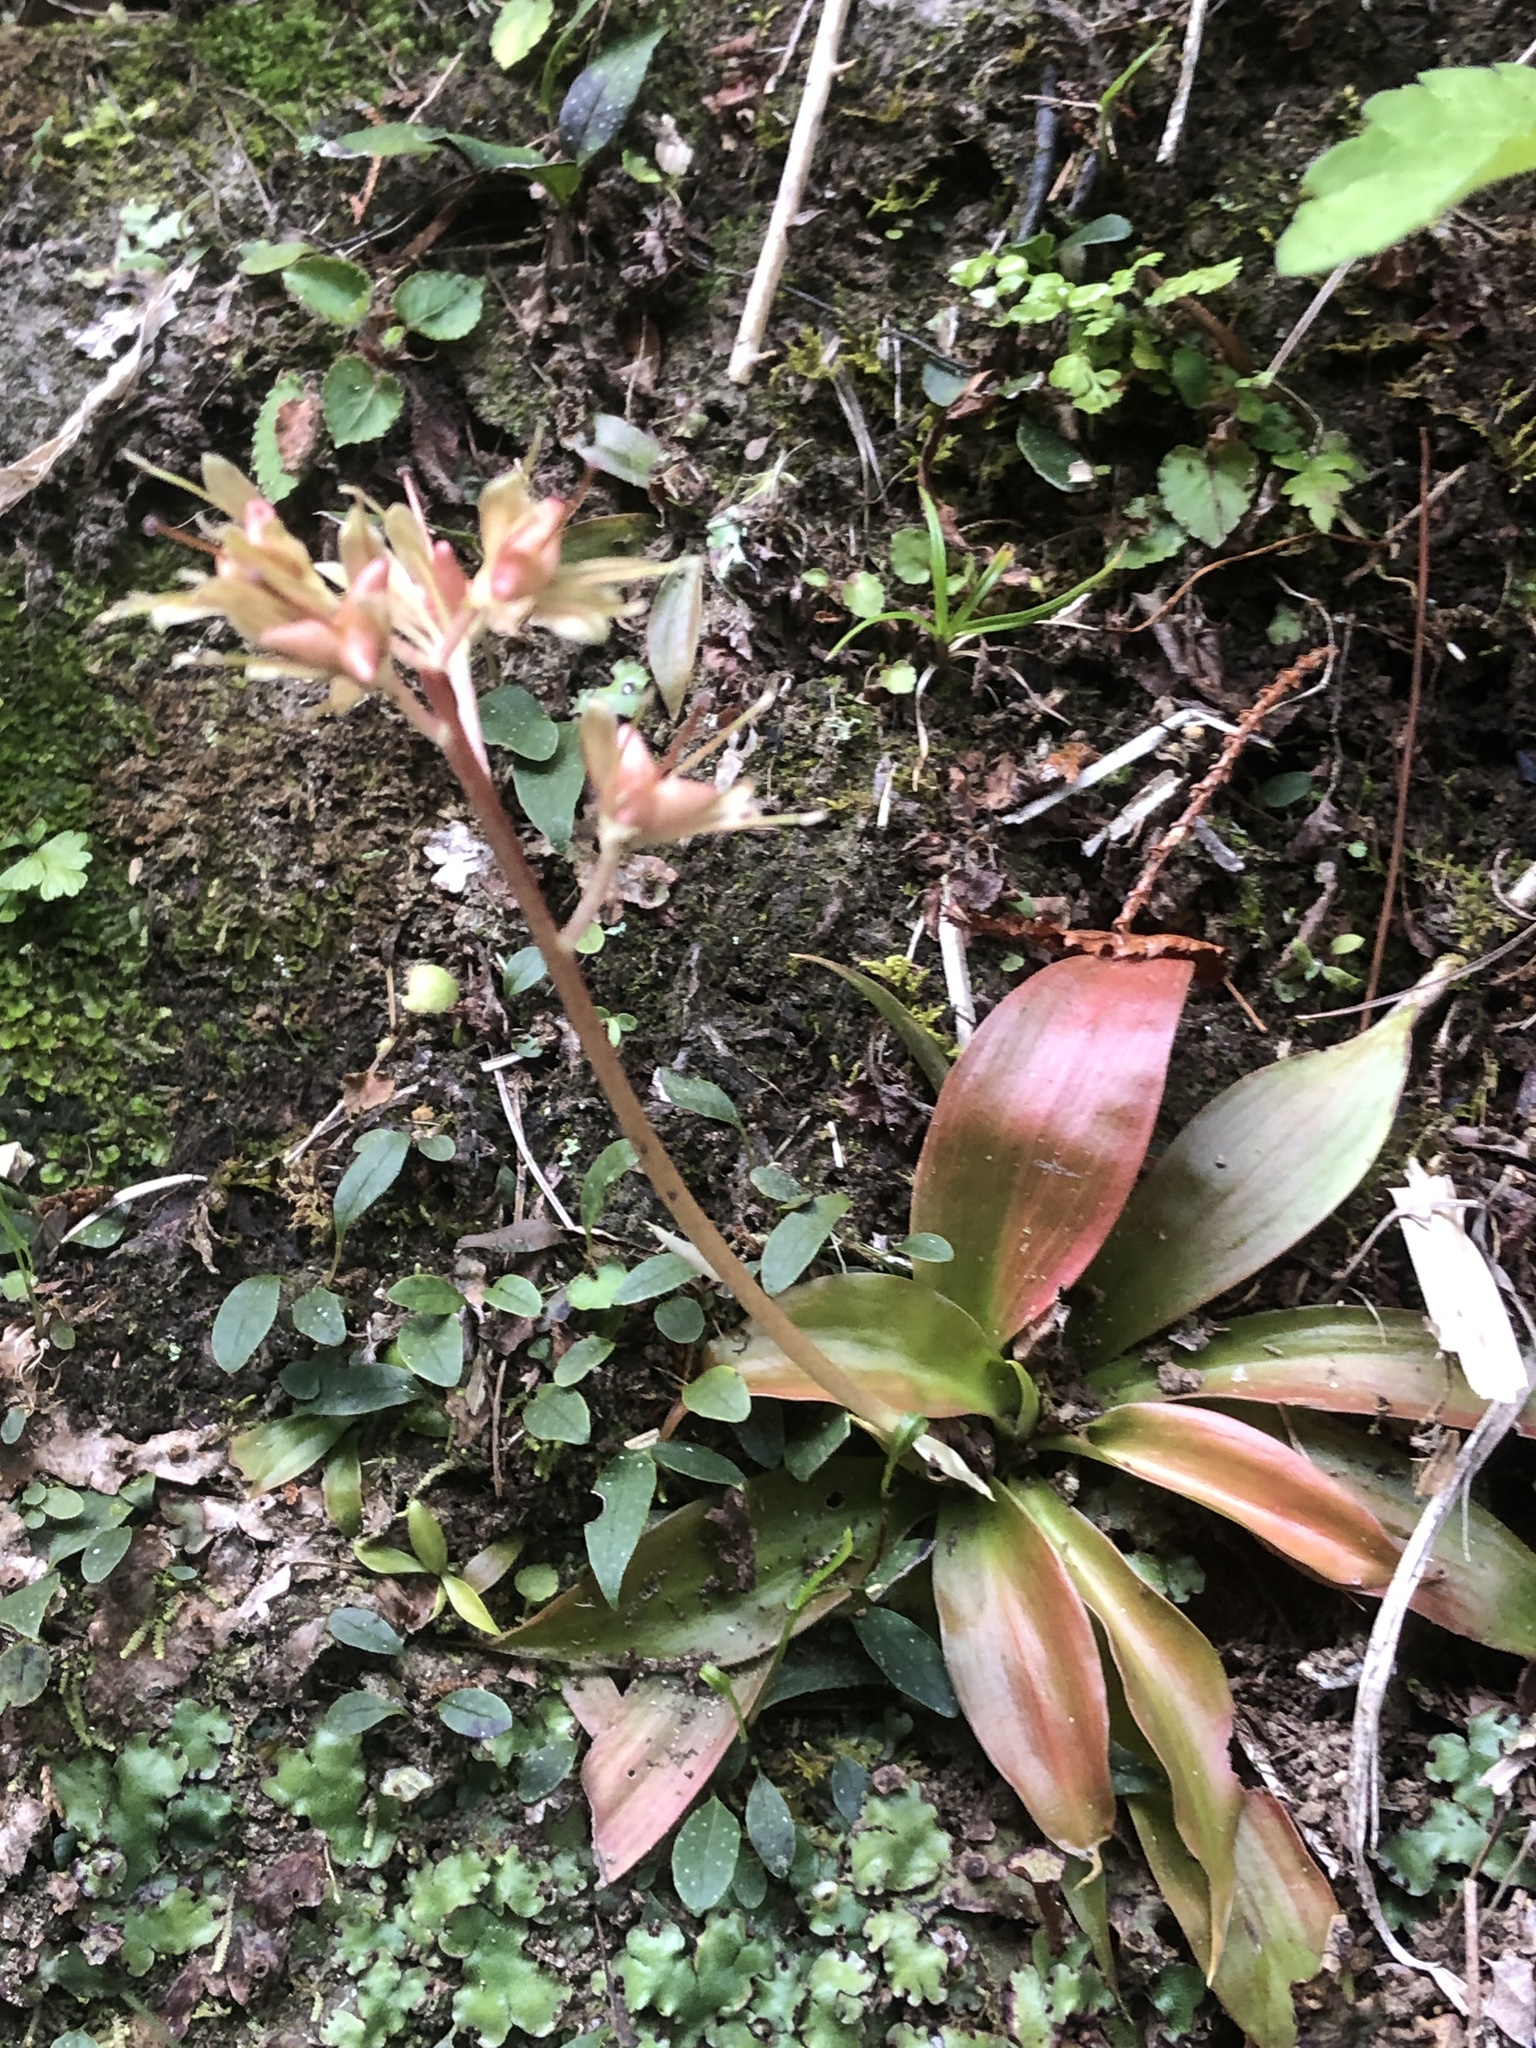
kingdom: Plantae
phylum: Tracheophyta
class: Liliopsida
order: Liliales
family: Melanthiaceae
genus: Helonias
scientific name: Helonias umbellata
